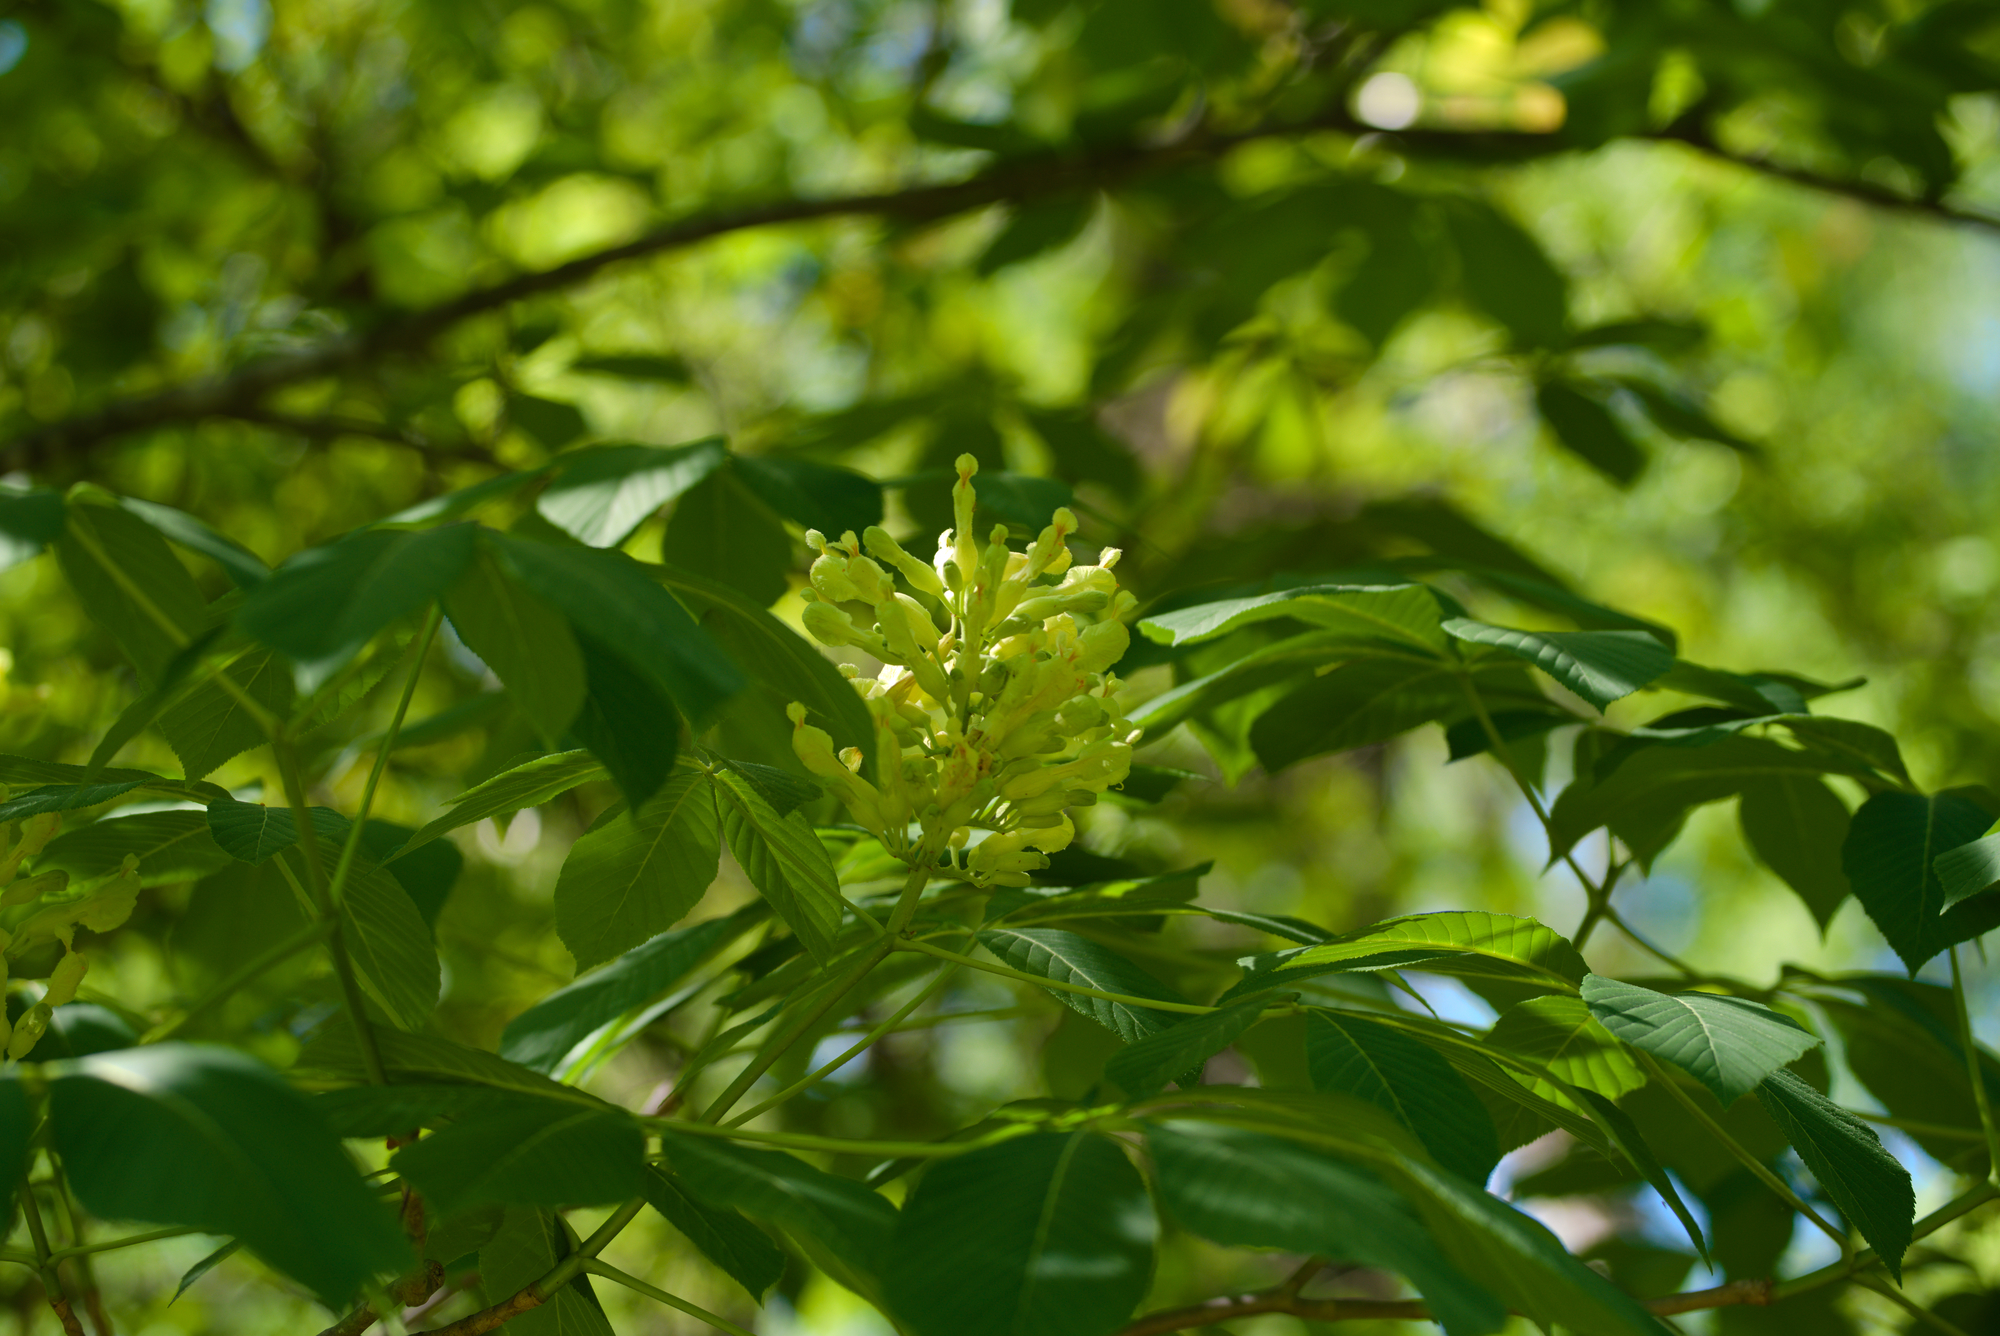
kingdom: Plantae
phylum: Tracheophyta
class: Magnoliopsida
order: Sapindales
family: Sapindaceae
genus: Aesculus
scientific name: Aesculus sylvatica
